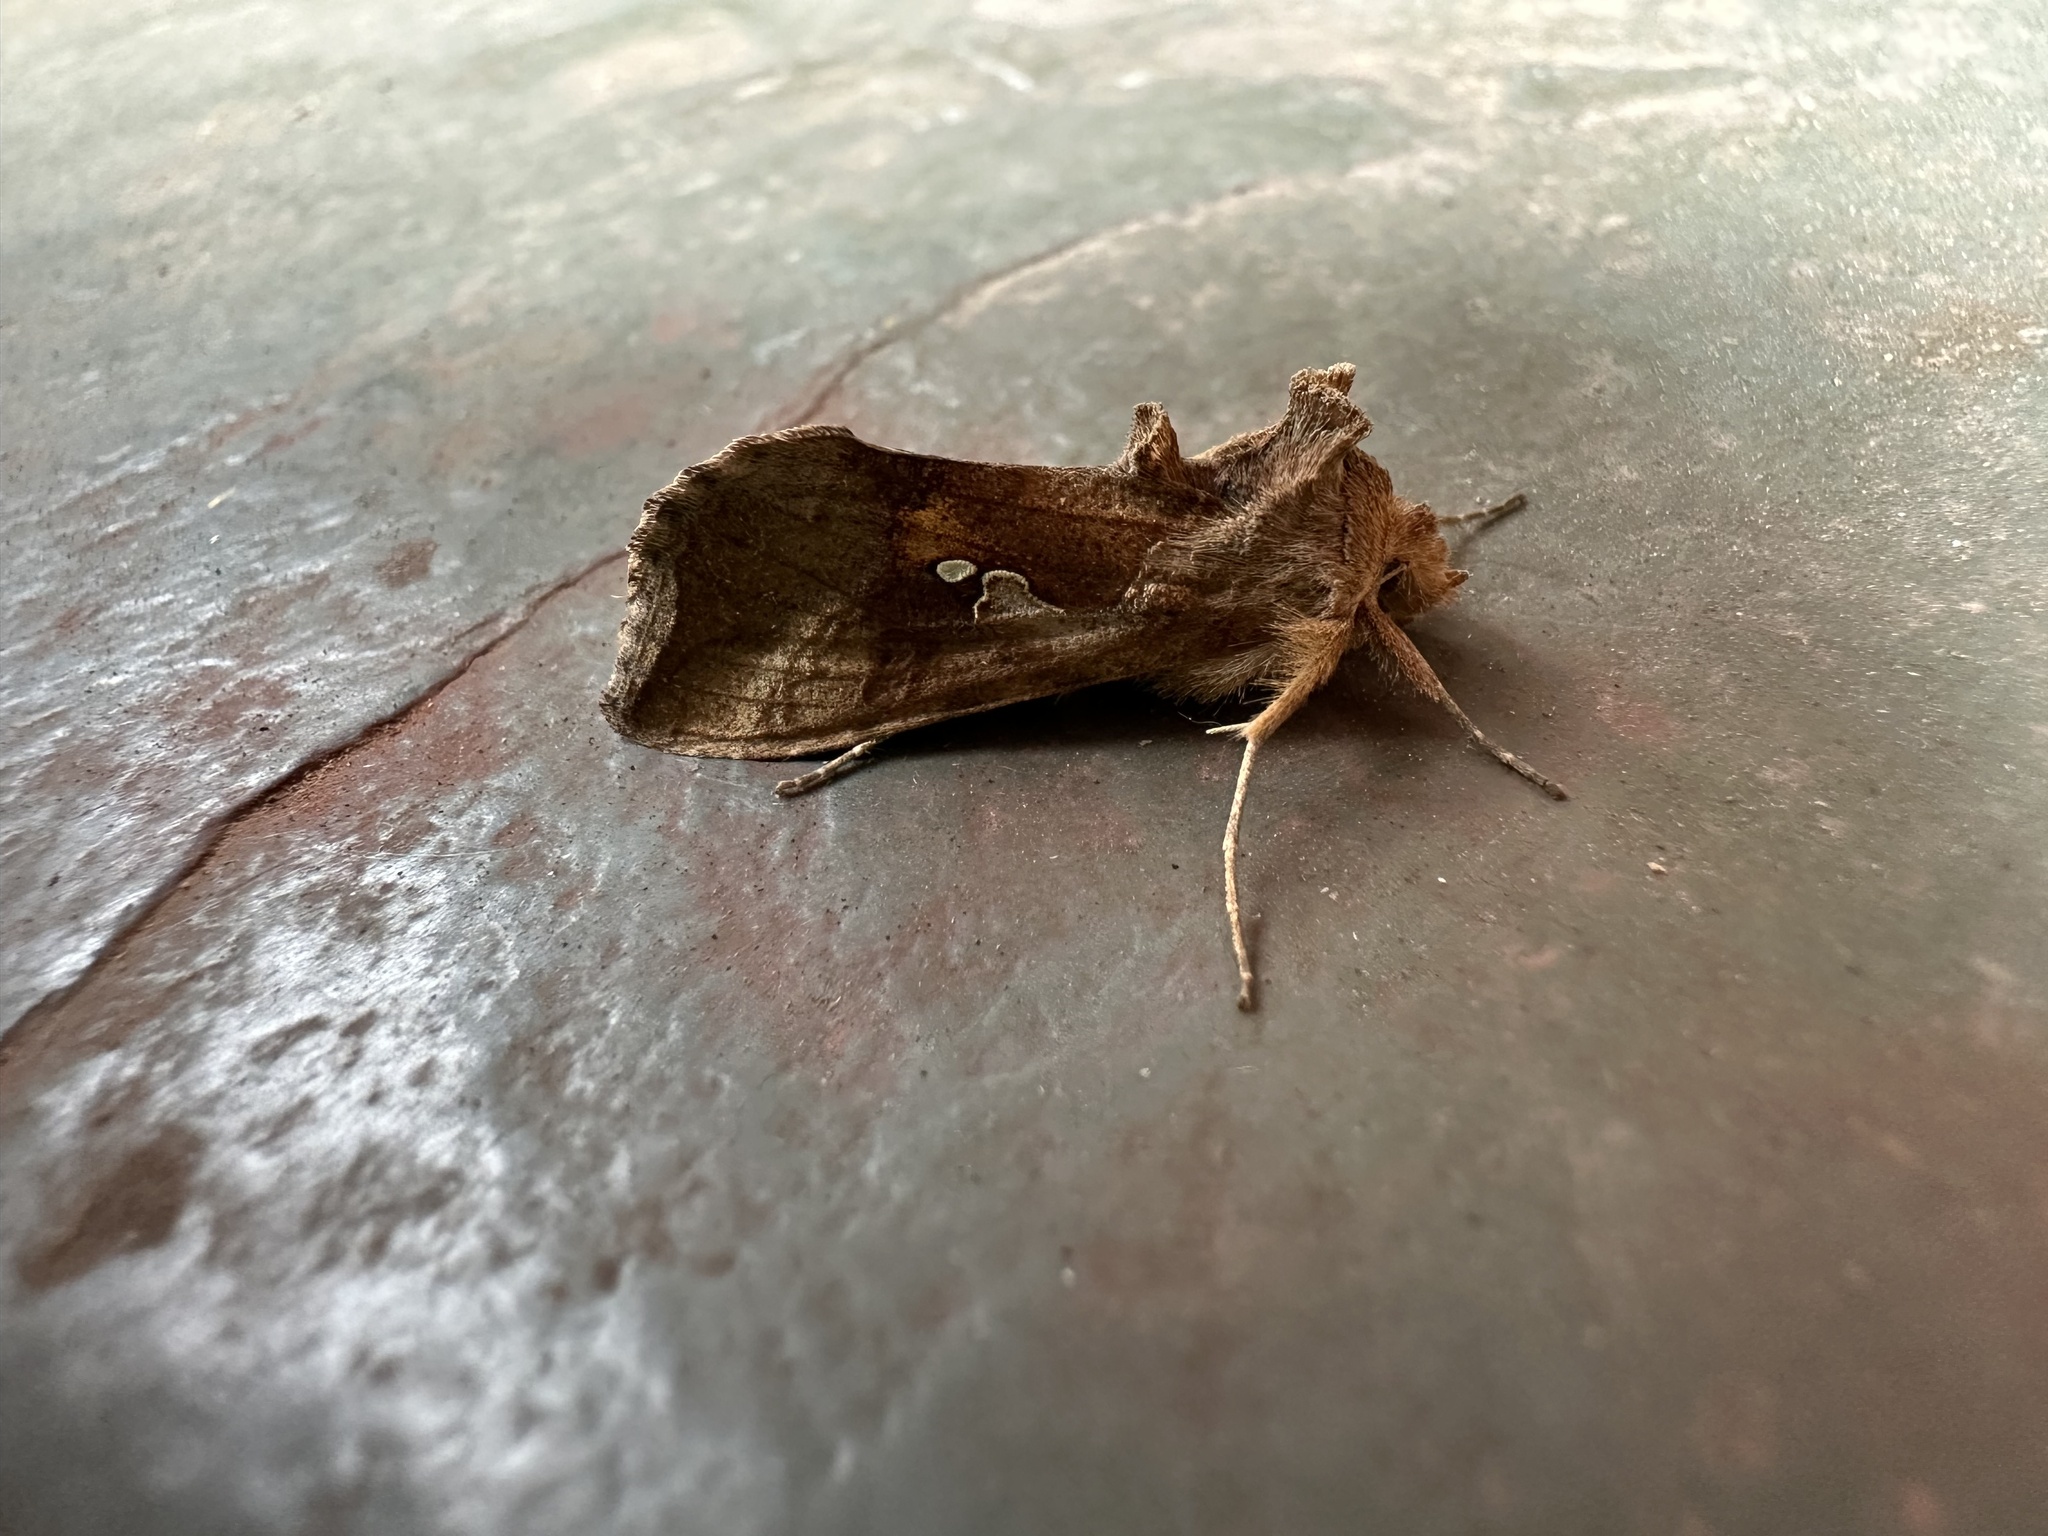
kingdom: Animalia
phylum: Arthropoda
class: Insecta
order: Lepidoptera
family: Noctuidae
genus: Autoplusia
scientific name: Autoplusia gammoides
